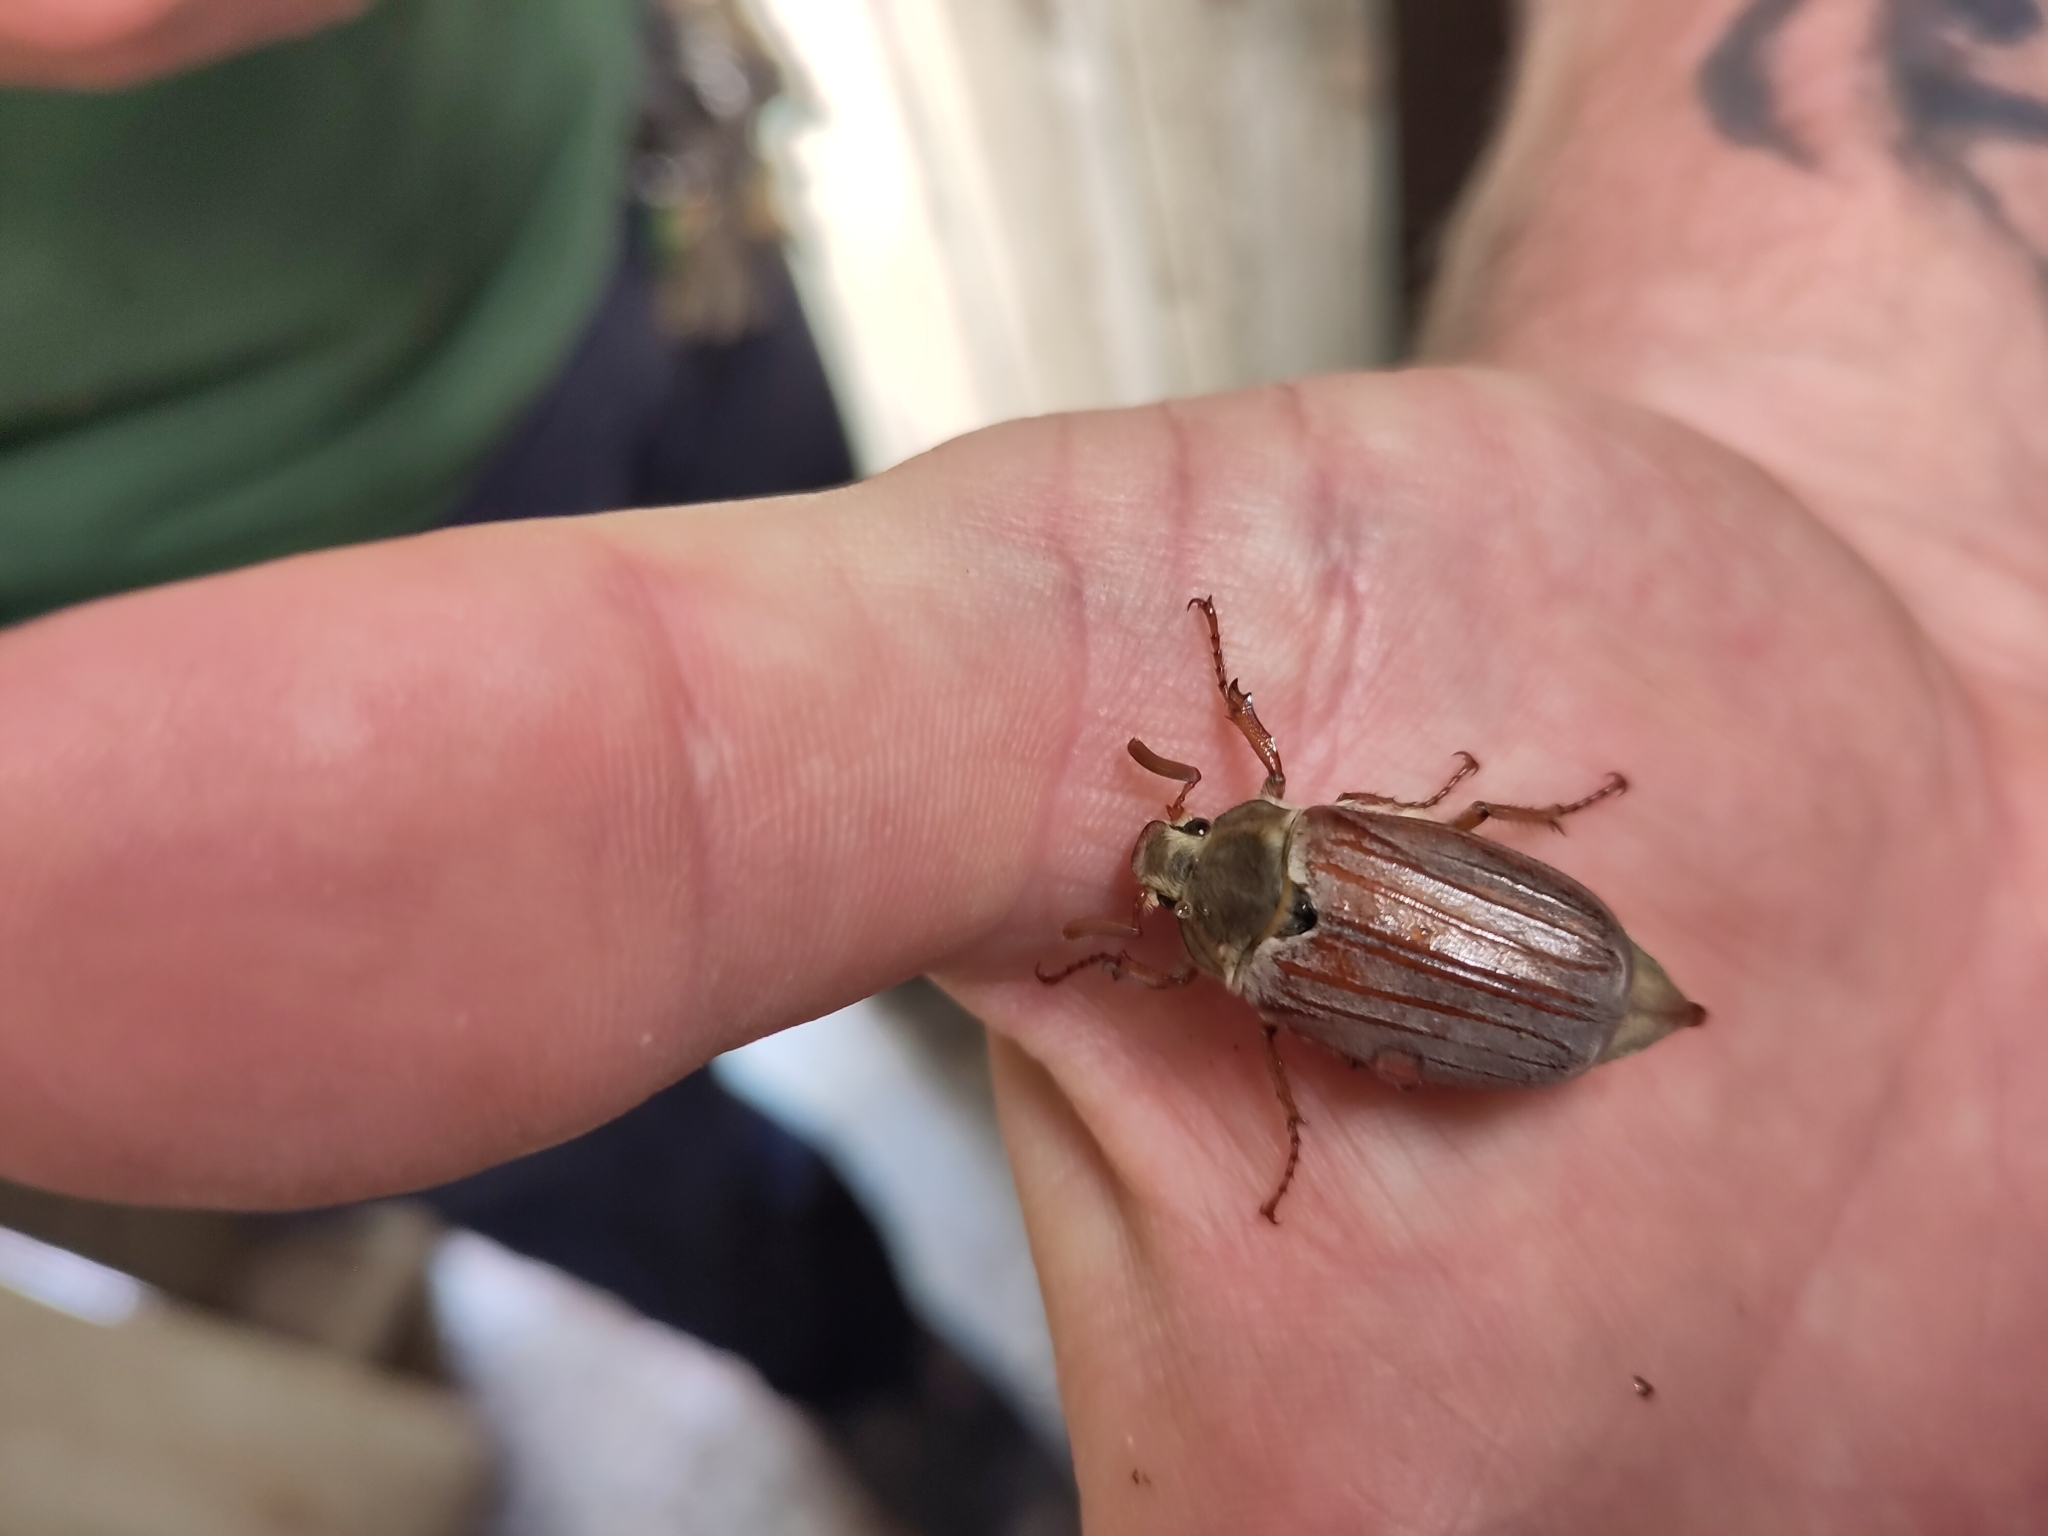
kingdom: Animalia
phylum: Arthropoda
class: Insecta
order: Coleoptera
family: Scarabaeidae
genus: Melolontha
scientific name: Melolontha melolontha
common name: Cockchafer maybeetle
